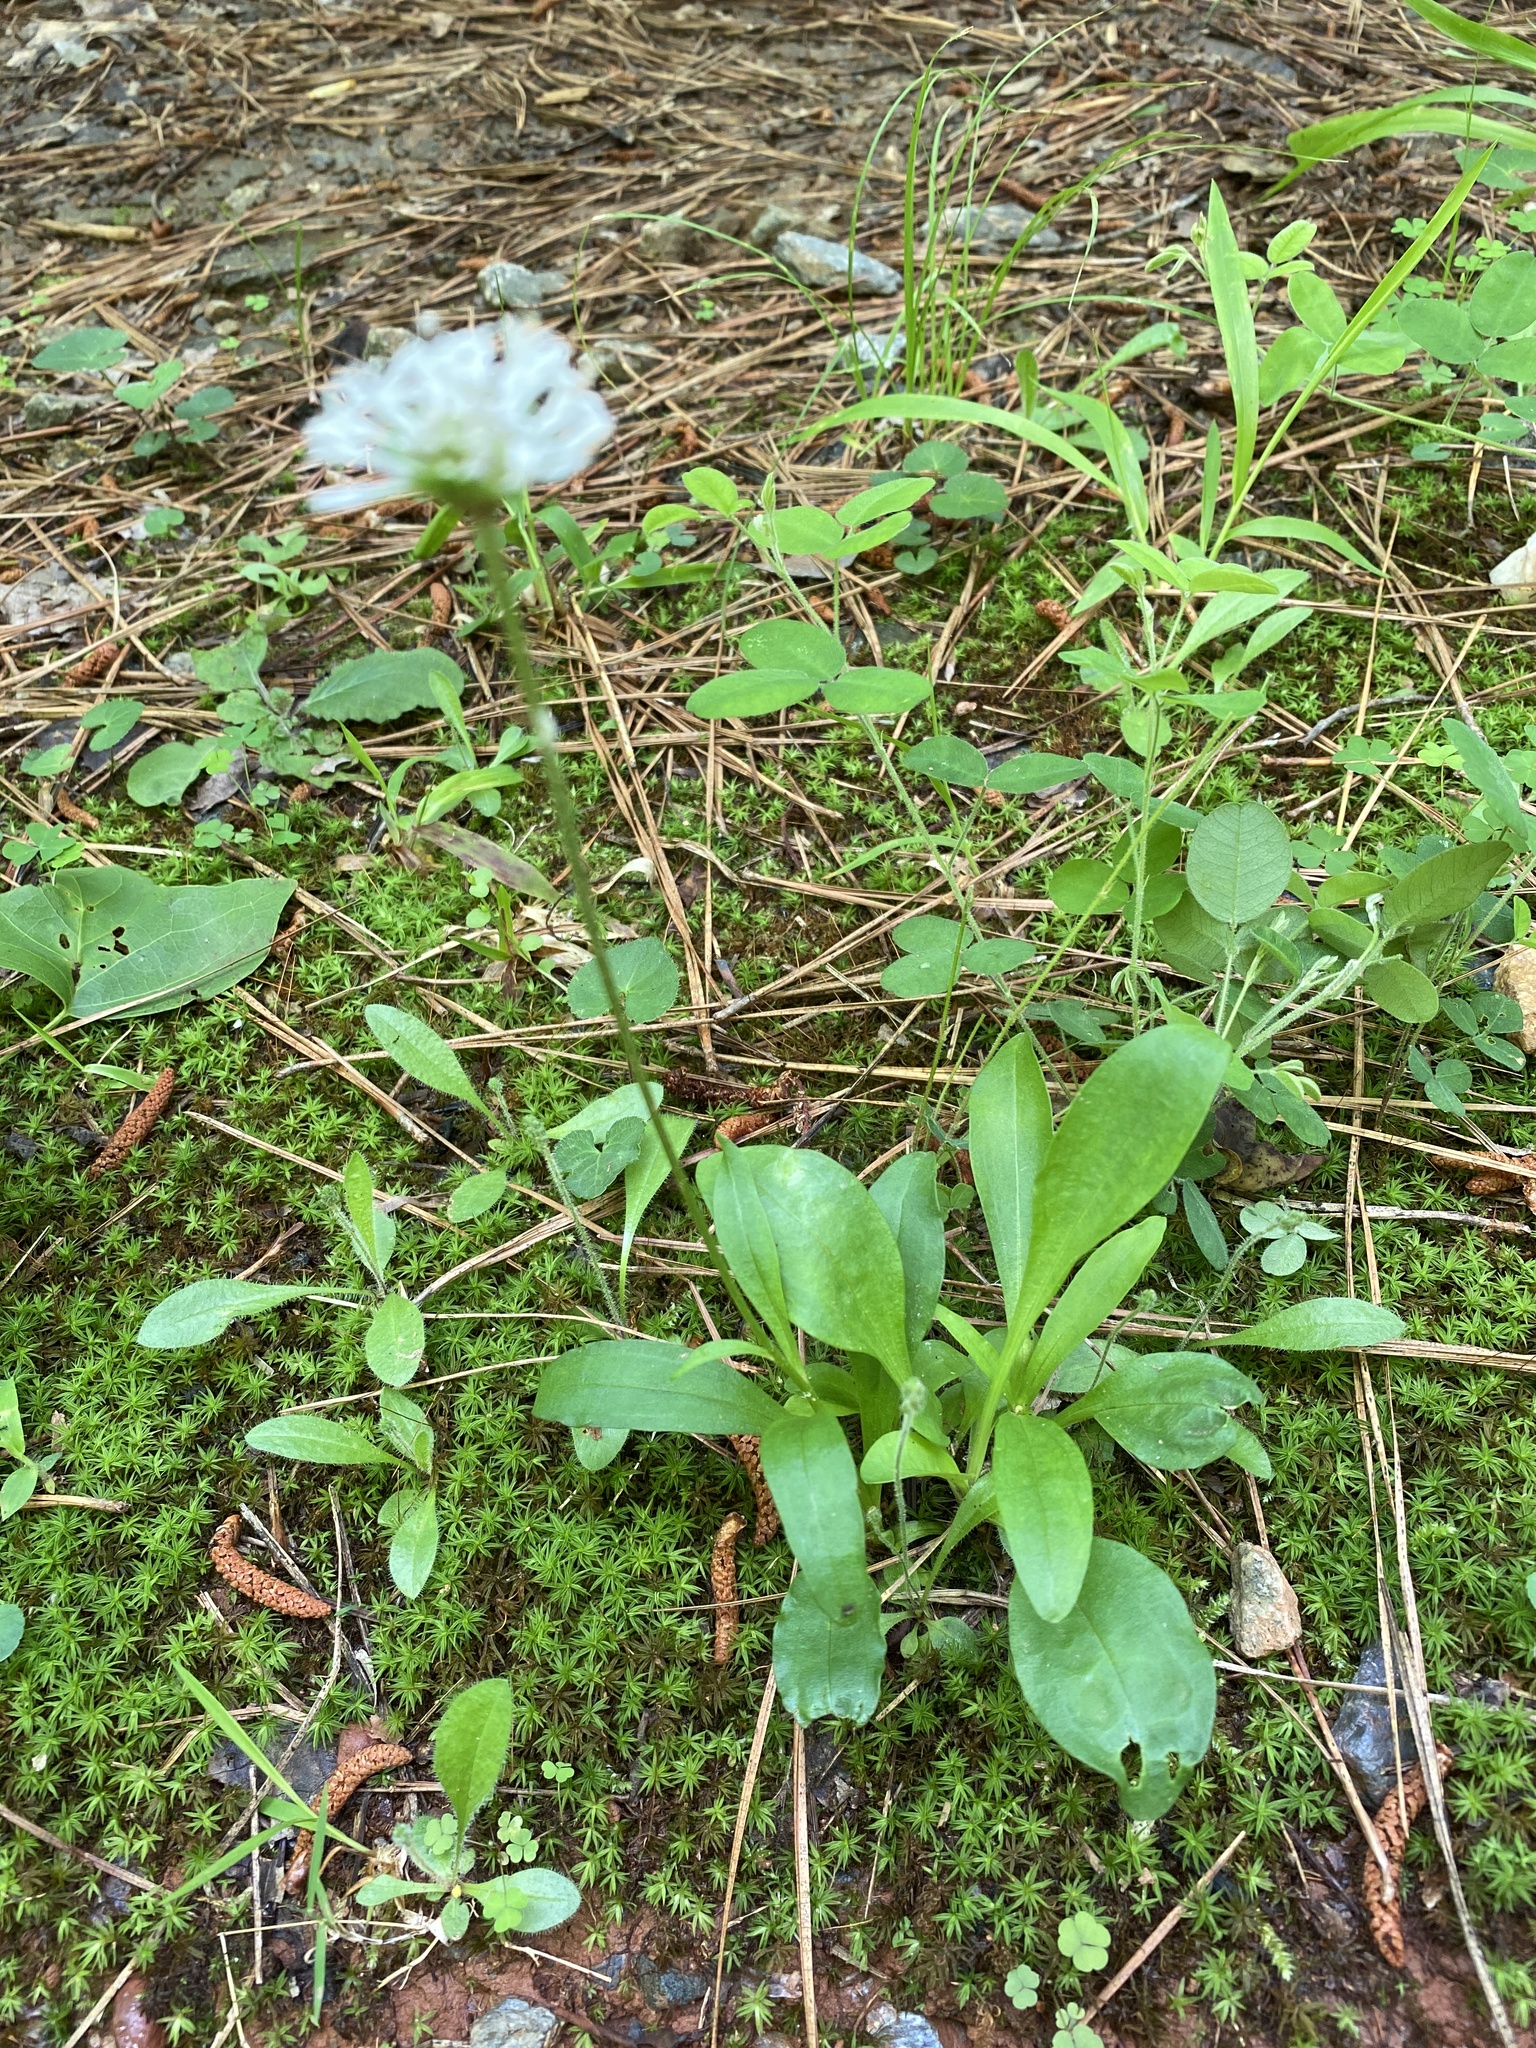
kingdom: Plantae
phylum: Tracheophyta
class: Magnoliopsida
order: Asterales
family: Asteraceae
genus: Marshallia
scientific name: Marshallia obovata
